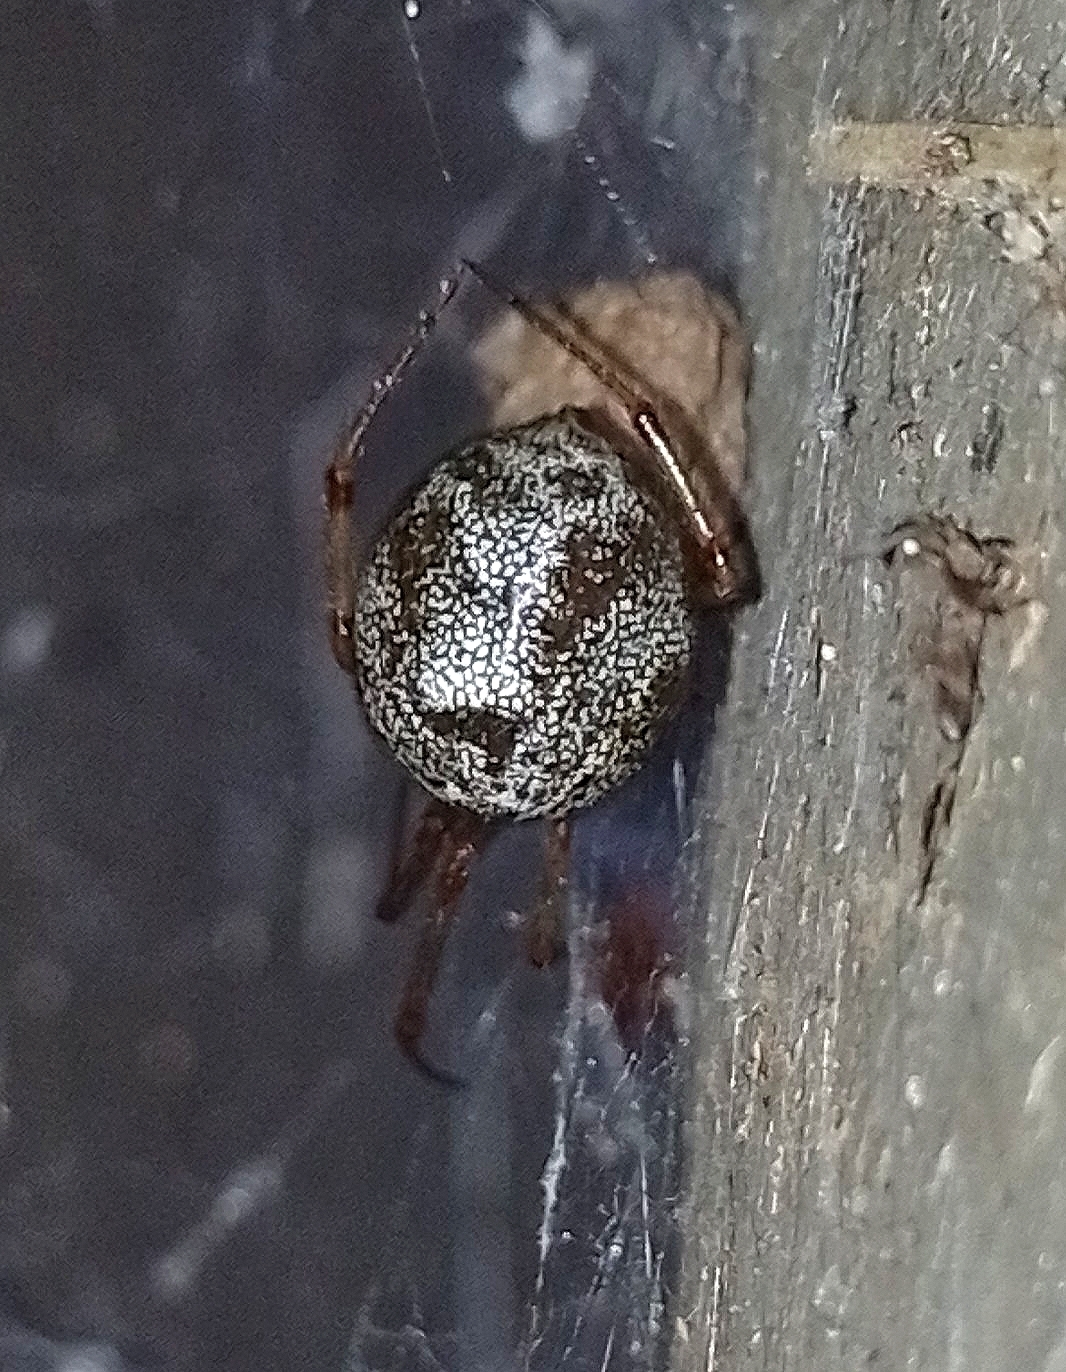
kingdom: Animalia
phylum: Arthropoda
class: Arachnida
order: Araneae
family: Theridiidae
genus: Parasteatoda
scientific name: Parasteatoda tepidariorum
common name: Common house spider
